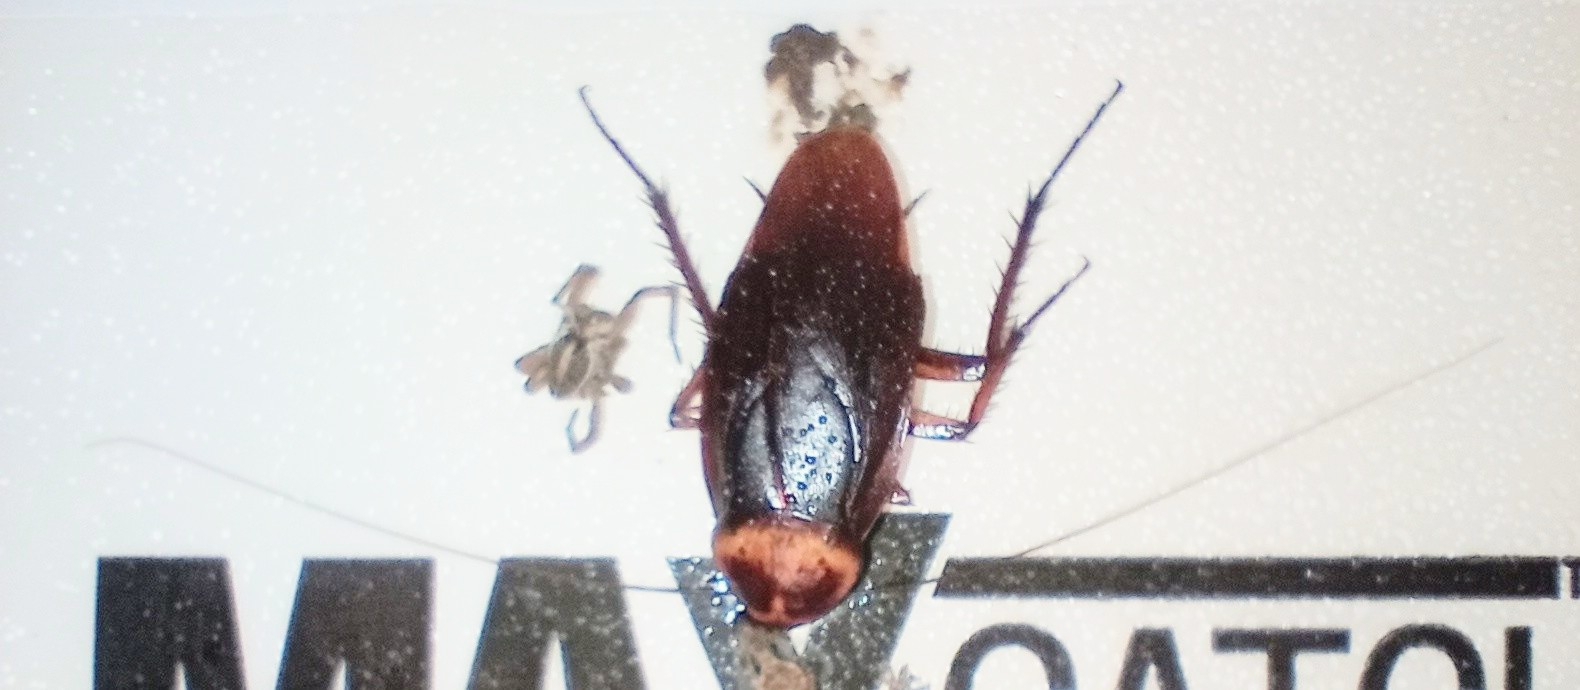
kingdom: Animalia
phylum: Arthropoda
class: Insecta
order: Blattodea
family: Blattidae
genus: Periplaneta
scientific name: Periplaneta americana
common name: American cockroach
